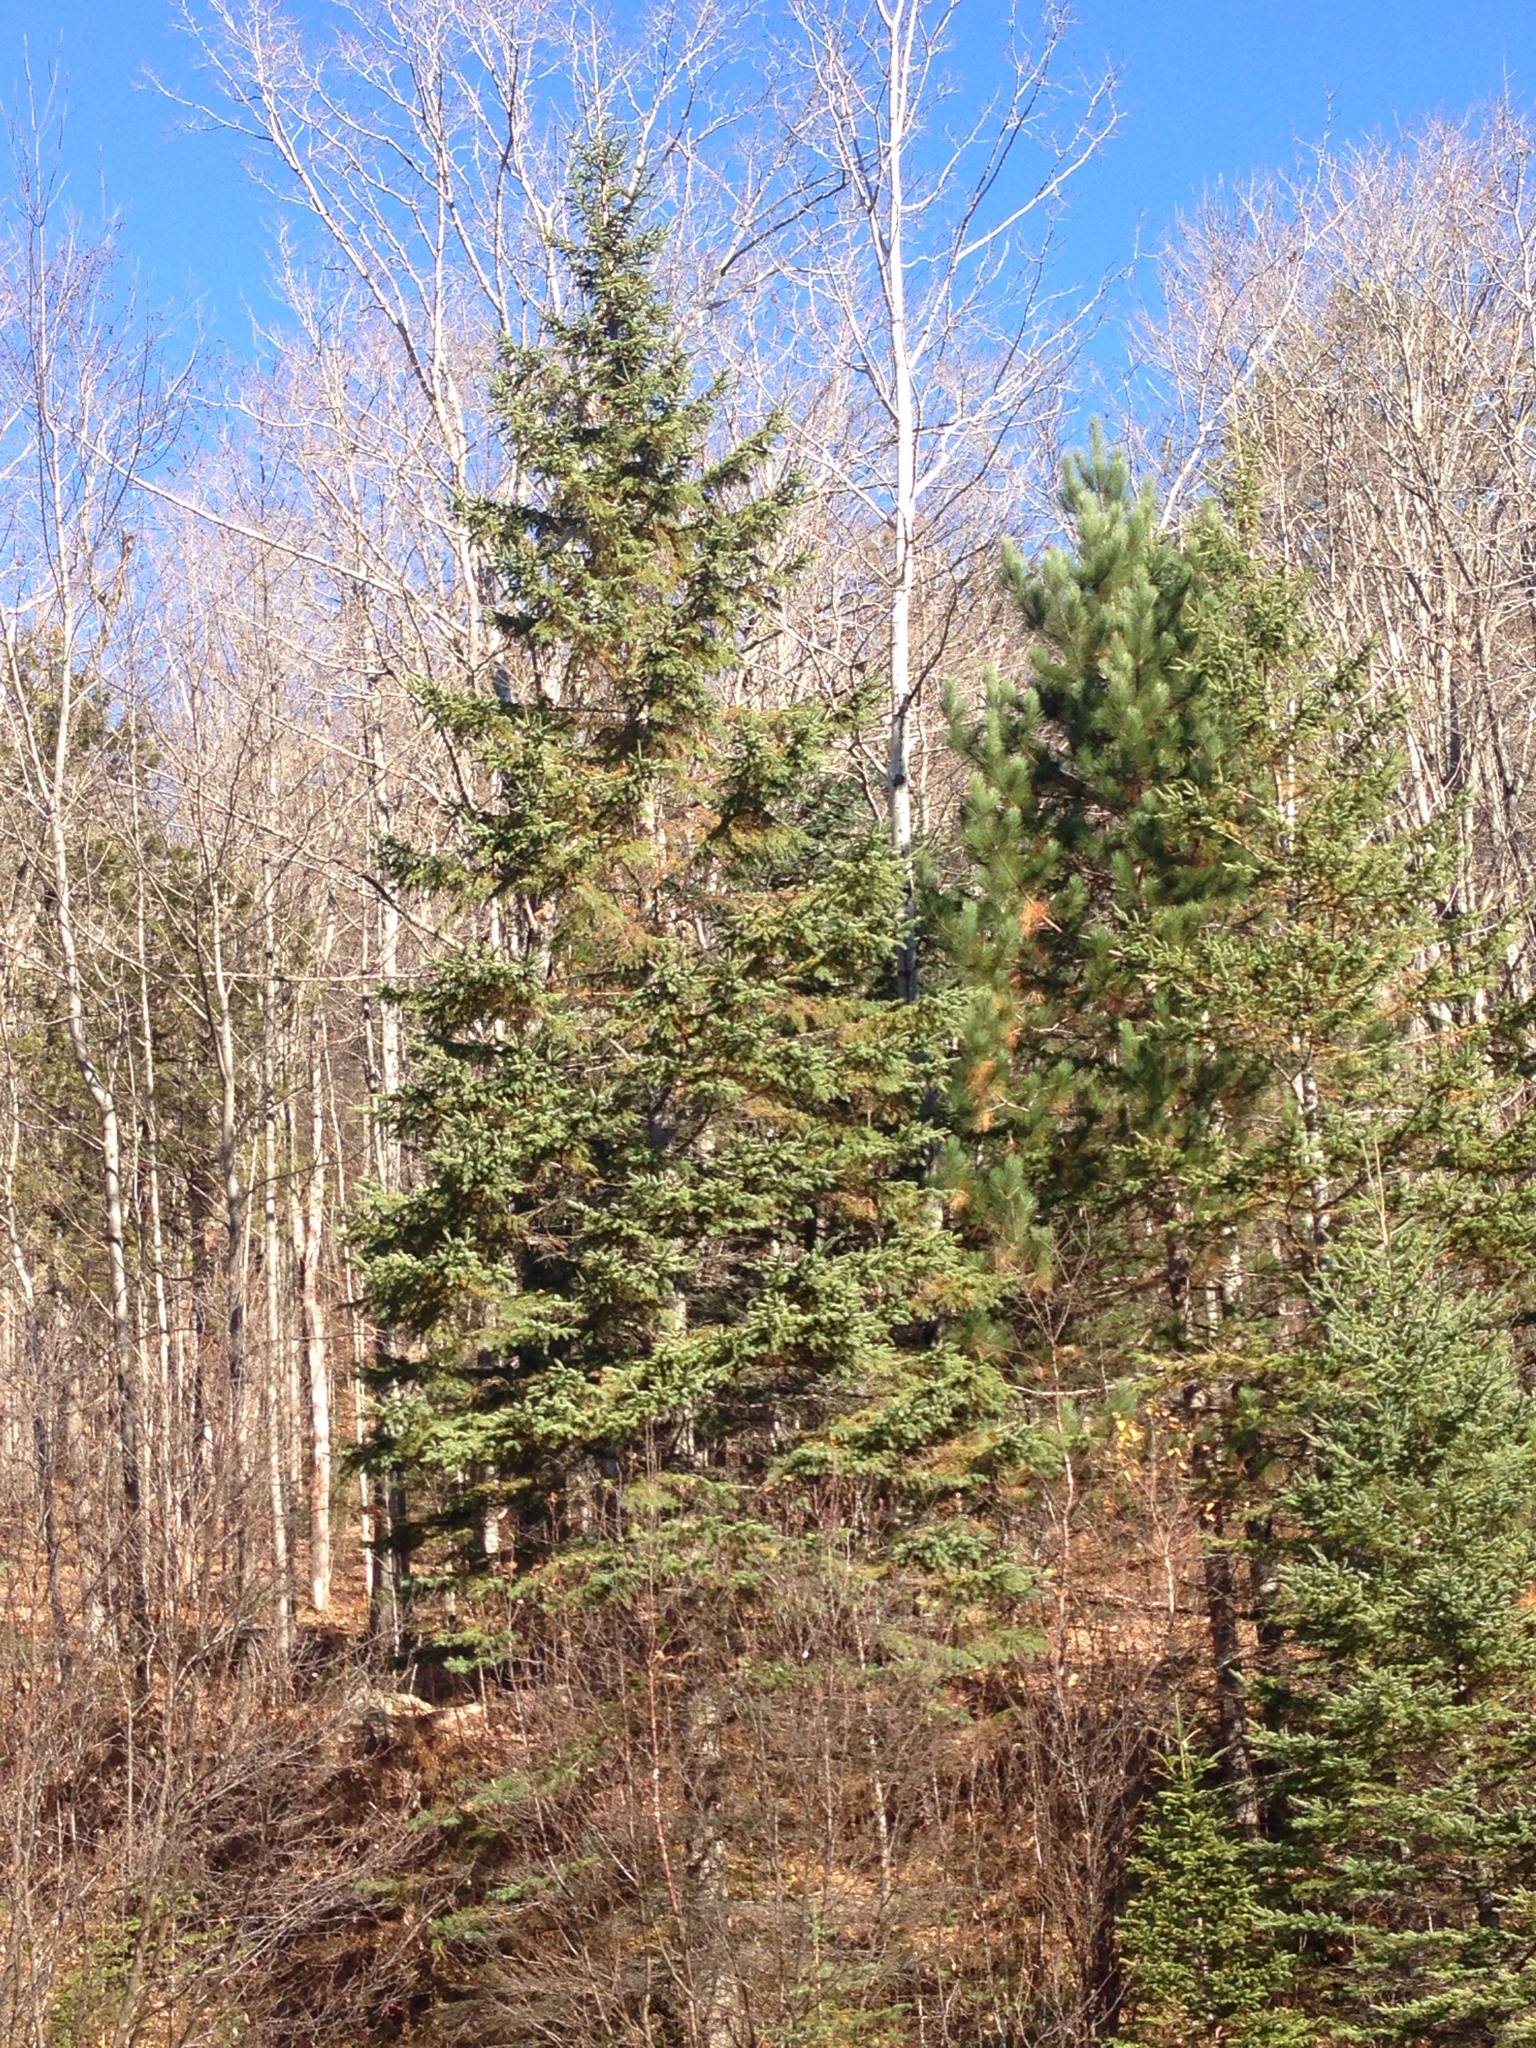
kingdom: Plantae
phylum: Tracheophyta
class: Pinopsida
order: Pinales
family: Pinaceae
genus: Abies
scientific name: Abies balsamea
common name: Balsam fir
